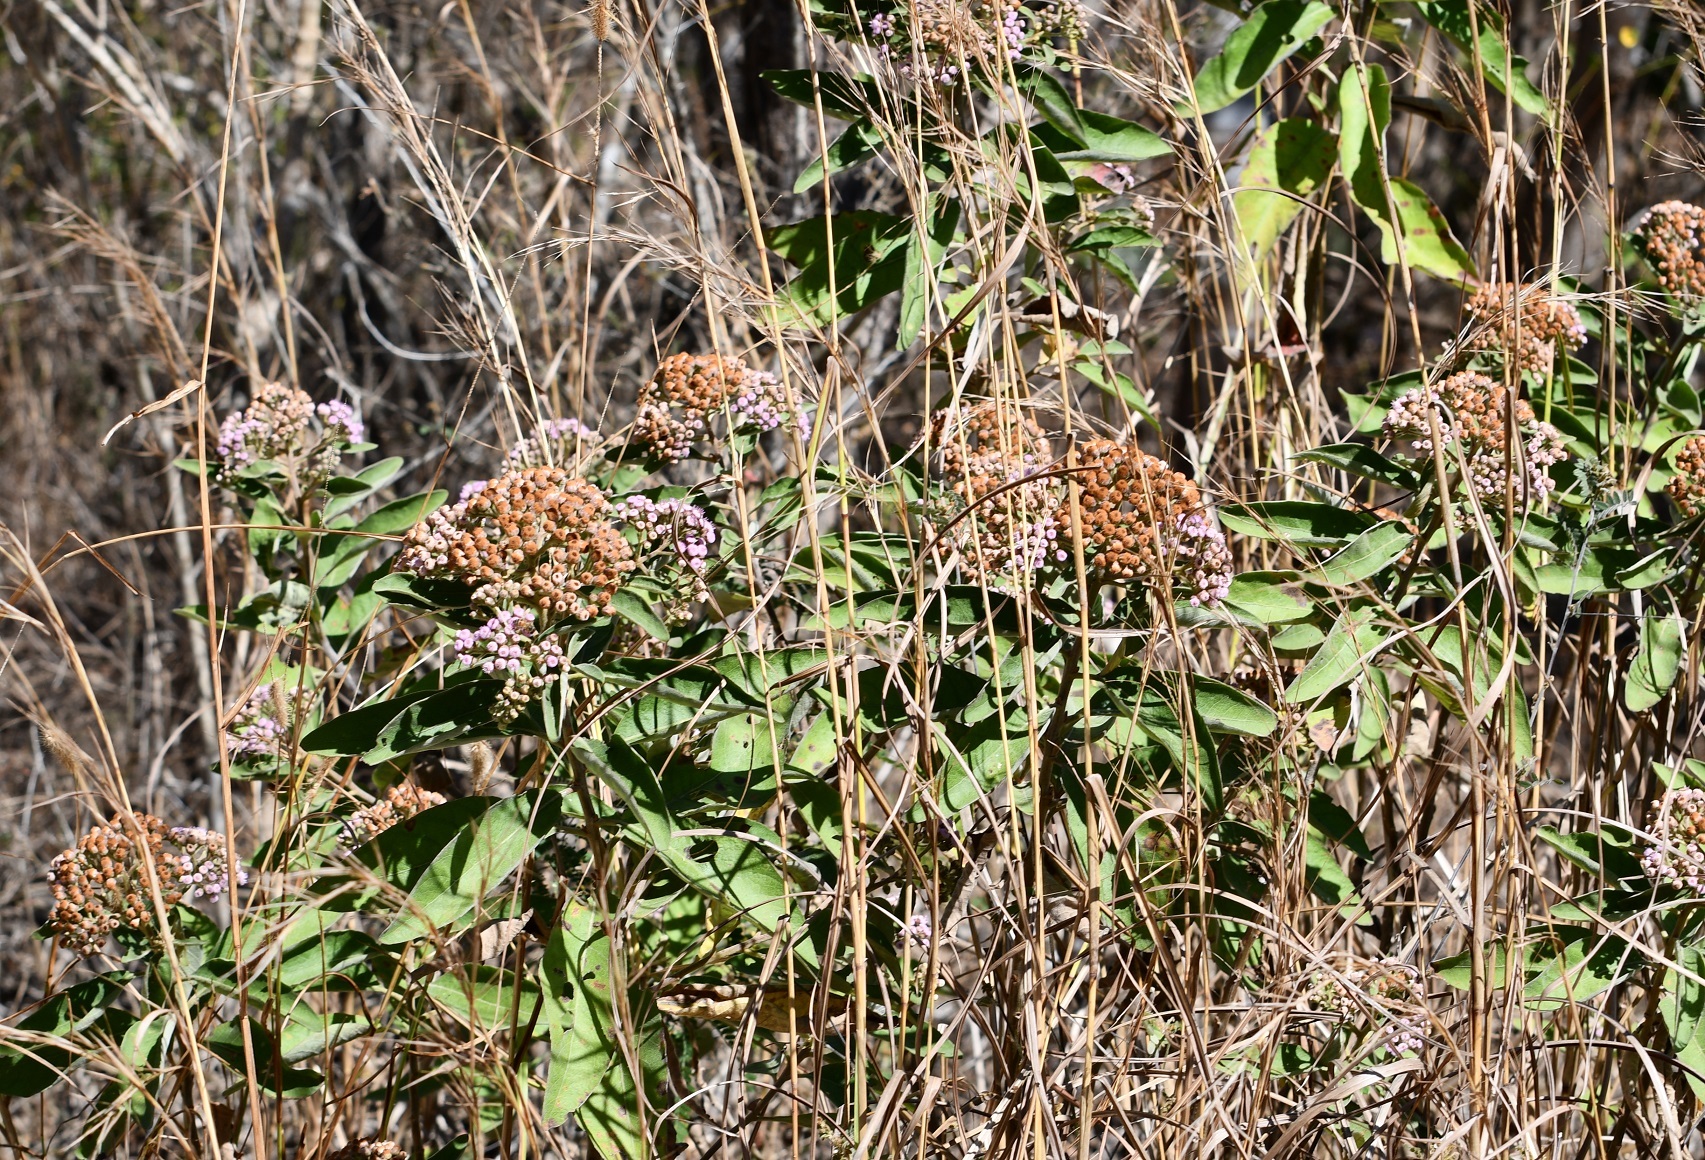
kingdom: Plantae
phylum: Tracheophyta
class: Magnoliopsida
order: Asterales
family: Asteraceae
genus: Pluchea
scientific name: Pluchea carolinensis
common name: Marsh fleabane
